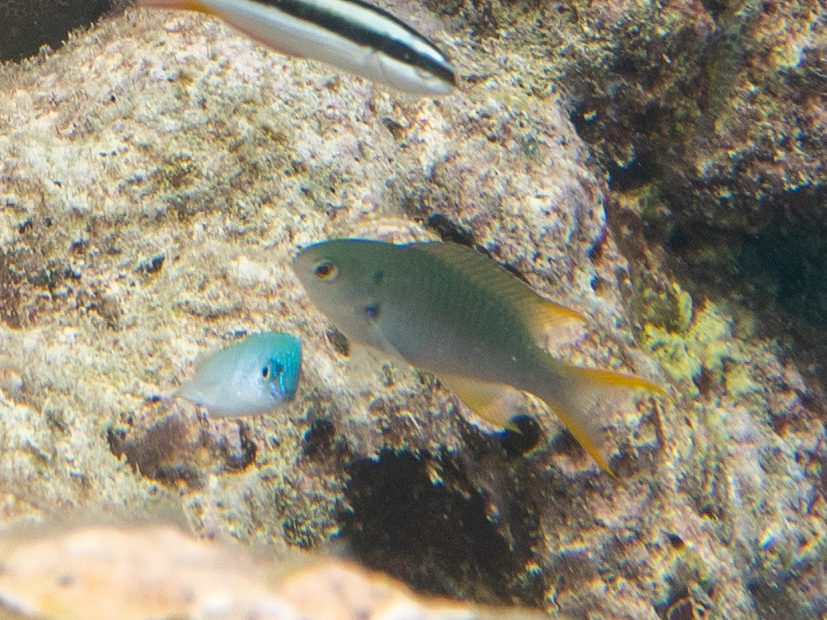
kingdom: Animalia
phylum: Chordata
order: Perciformes
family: Pomacentridae
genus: Neopomacentrus
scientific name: Neopomacentrus sororius
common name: Twin demoiselle
